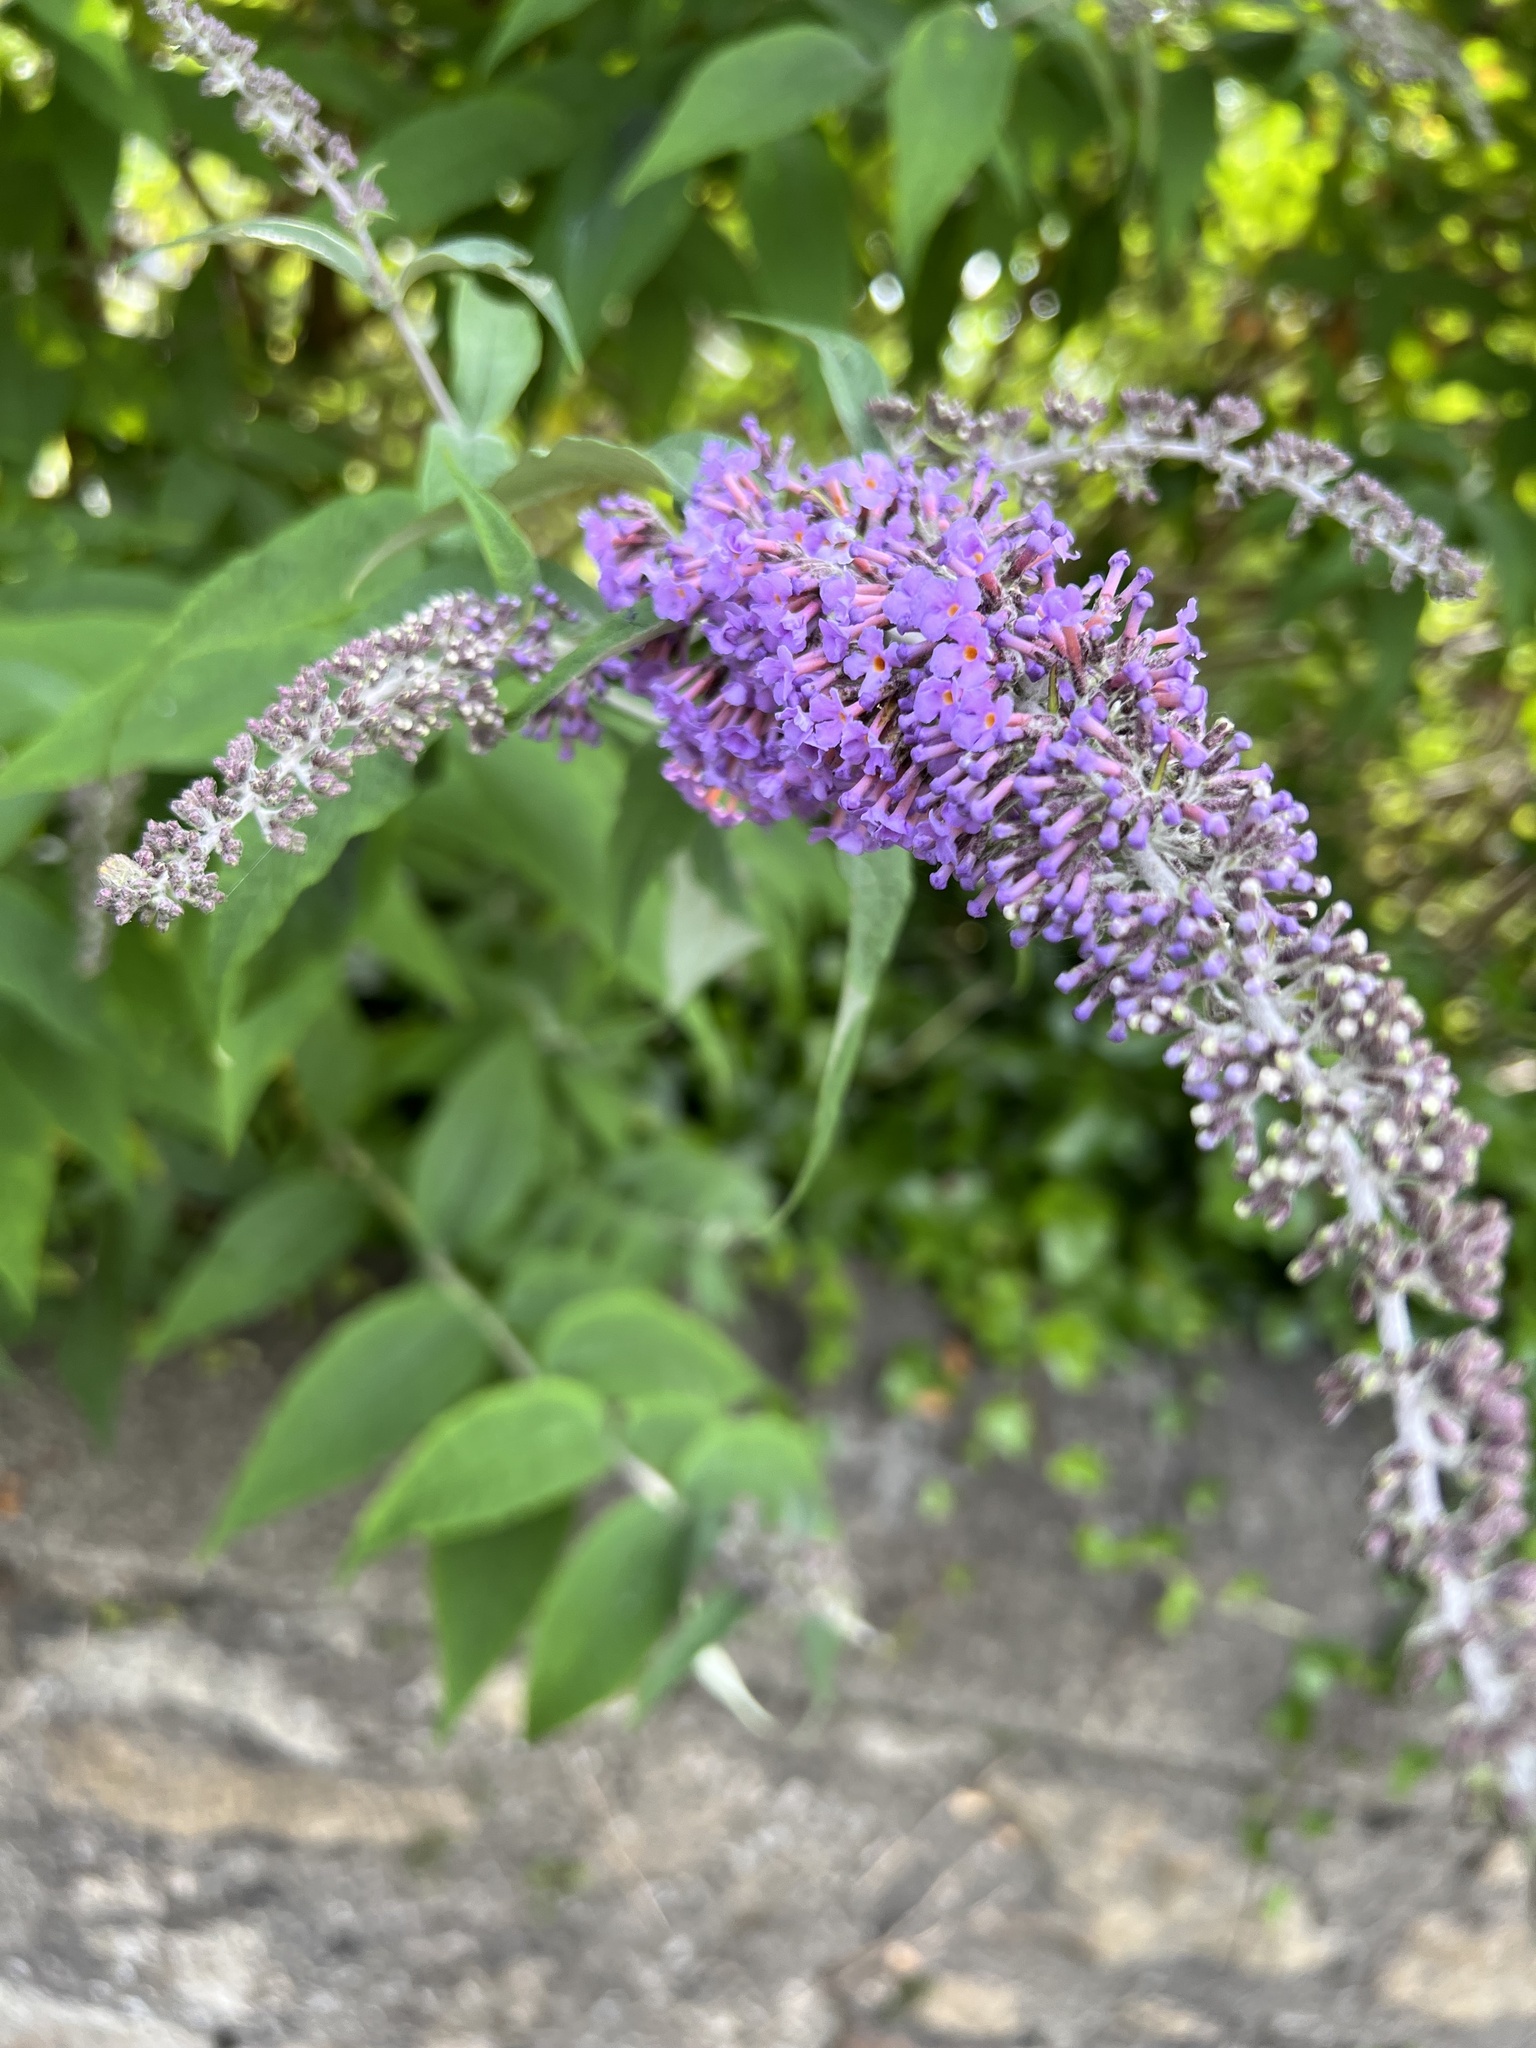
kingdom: Plantae
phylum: Tracheophyta
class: Magnoliopsida
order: Lamiales
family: Scrophulariaceae
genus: Buddleja
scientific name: Buddleja davidii
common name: Butterfly-bush
